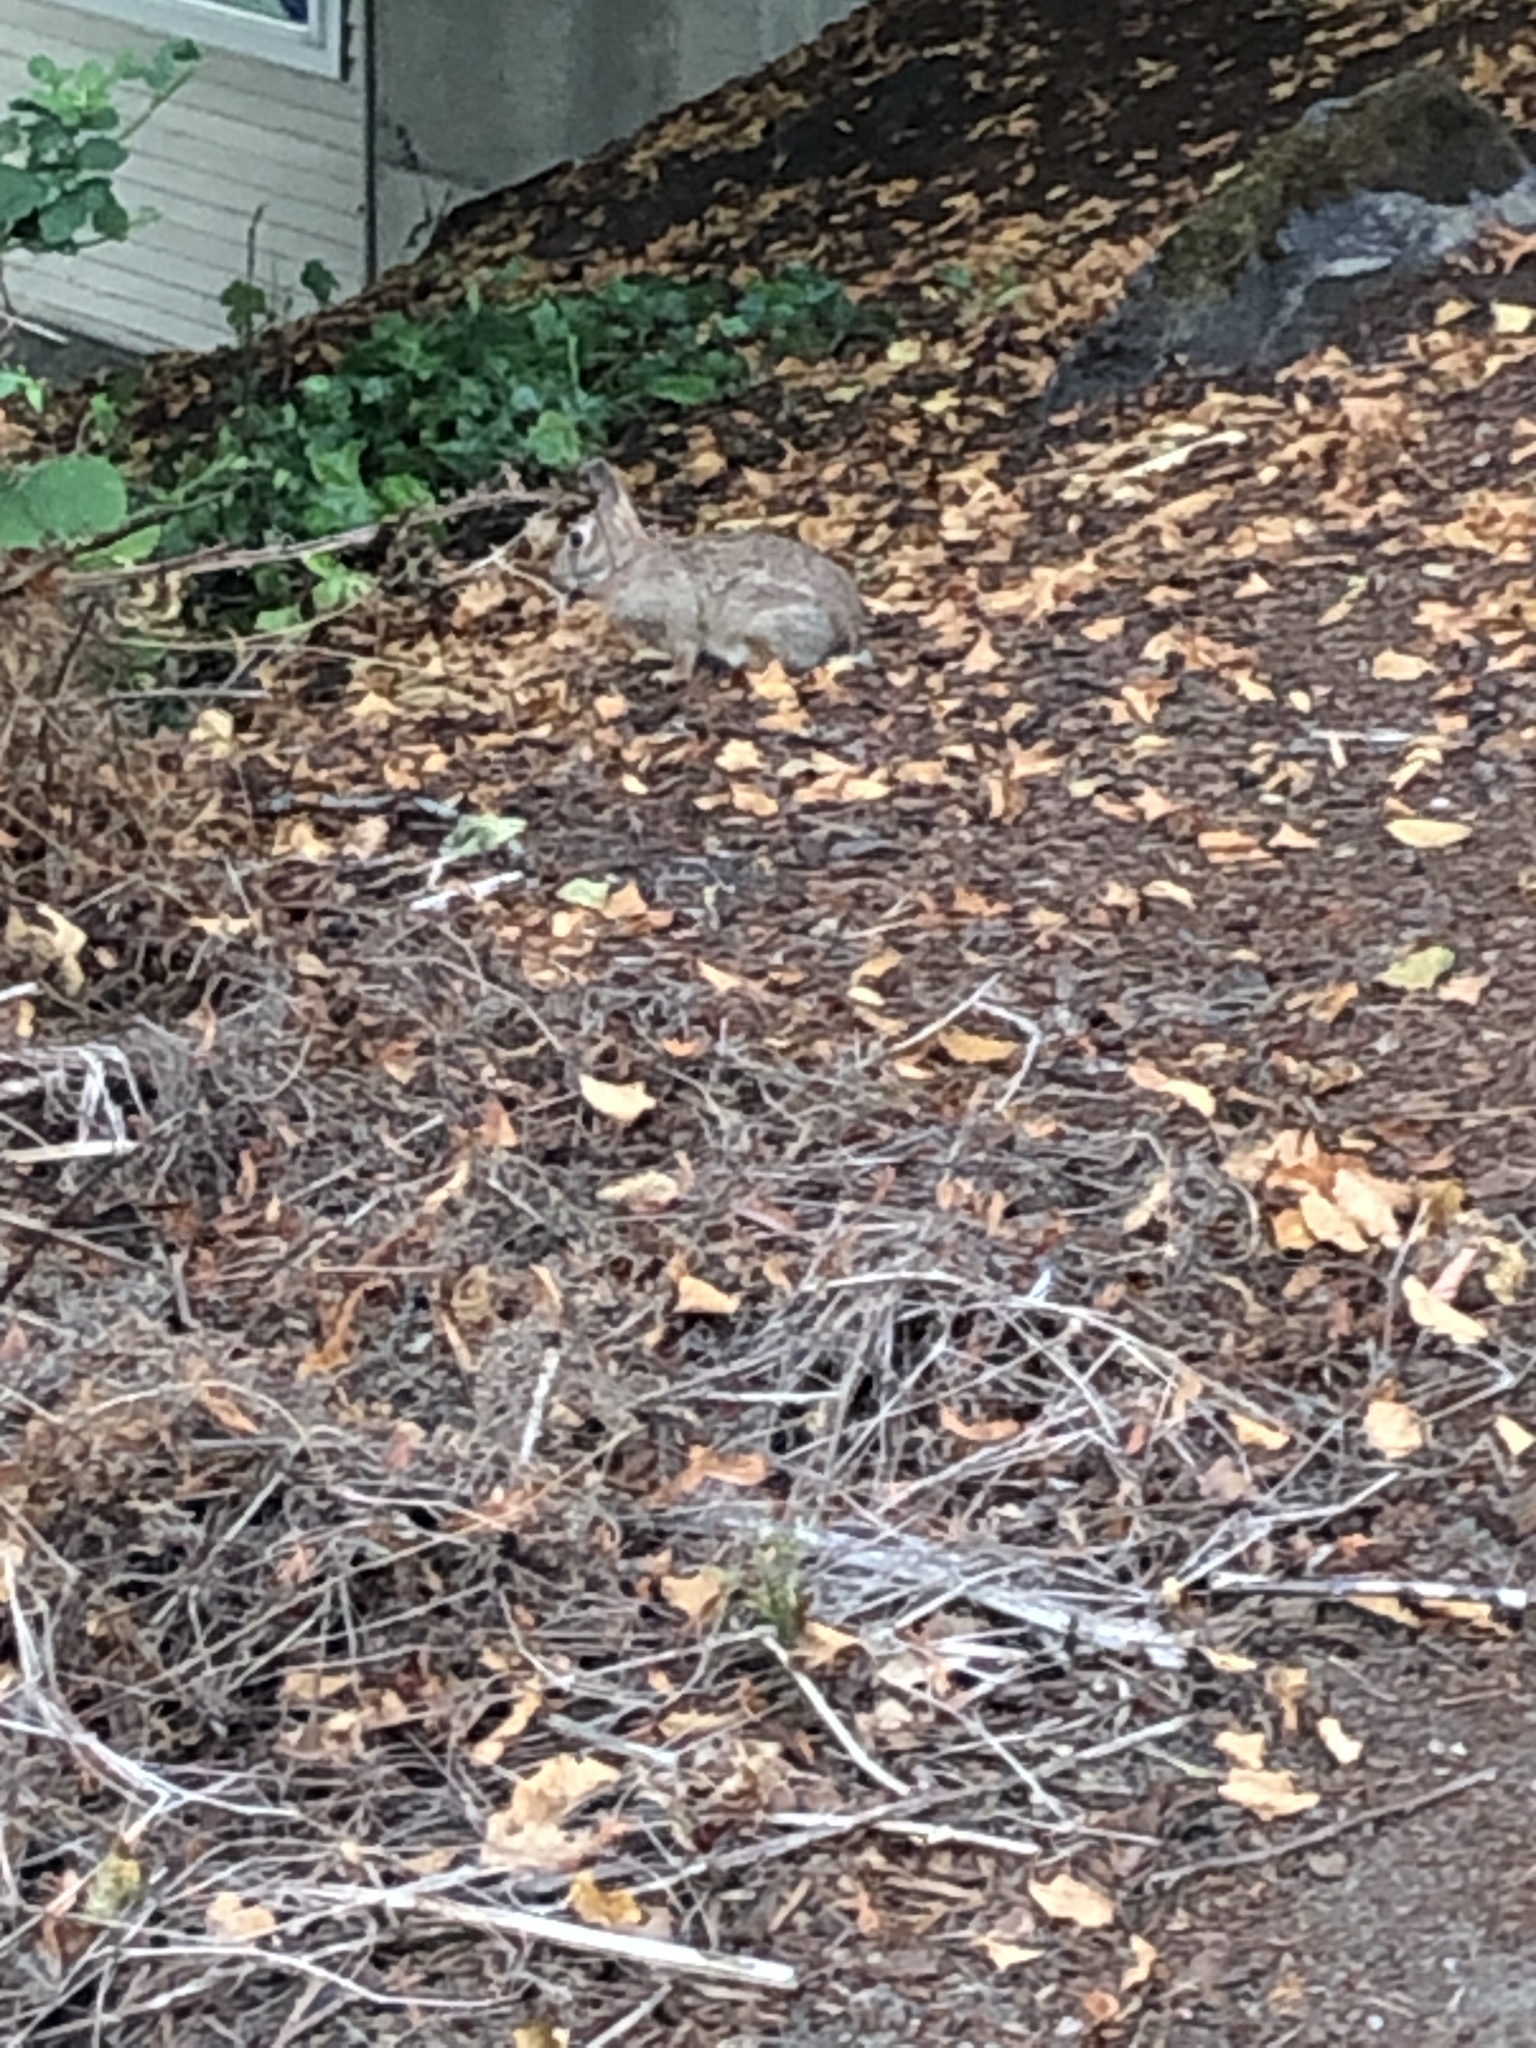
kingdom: Animalia
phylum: Chordata
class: Mammalia
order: Lagomorpha
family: Leporidae
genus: Sylvilagus
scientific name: Sylvilagus floridanus
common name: Eastern cottontail
